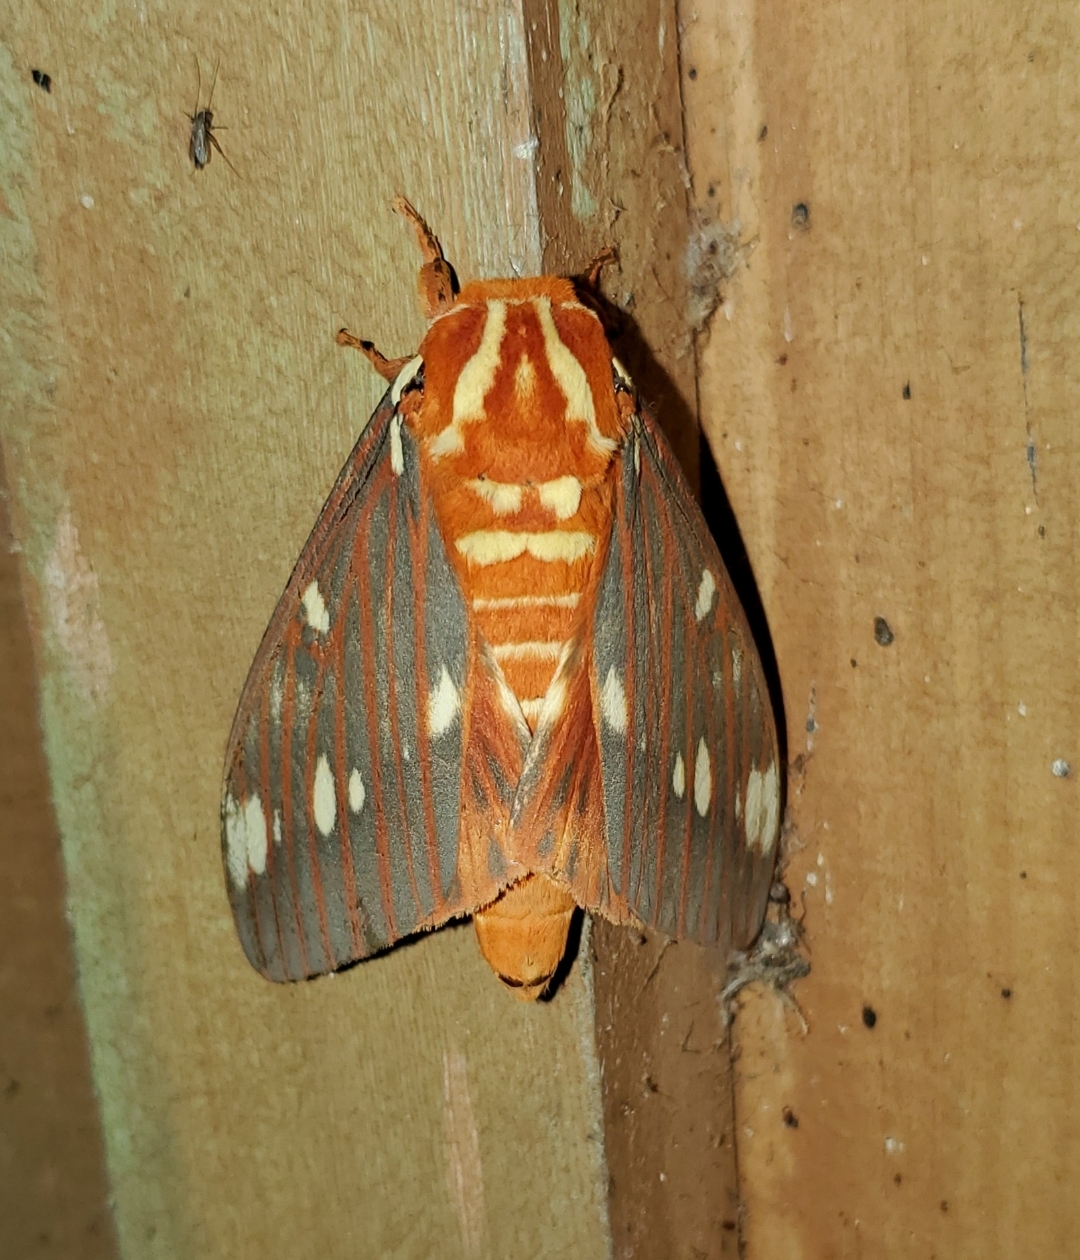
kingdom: Animalia
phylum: Arthropoda
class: Insecta
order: Lepidoptera
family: Saturniidae
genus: Citheronia
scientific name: Citheronia regalis
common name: Hickory horned devil
